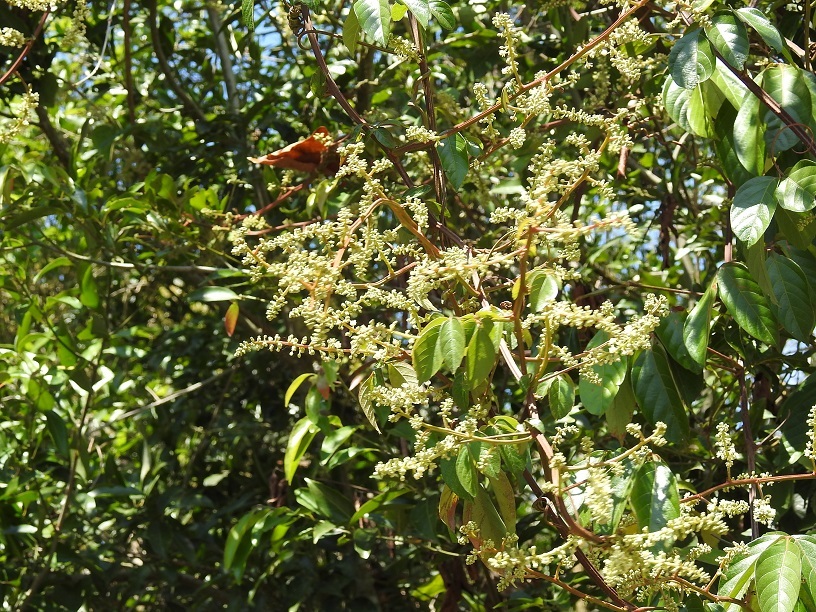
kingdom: Plantae
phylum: Tracheophyta
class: Magnoliopsida
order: Sapindales
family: Sapindaceae
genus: Paullinia
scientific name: Paullinia costata
